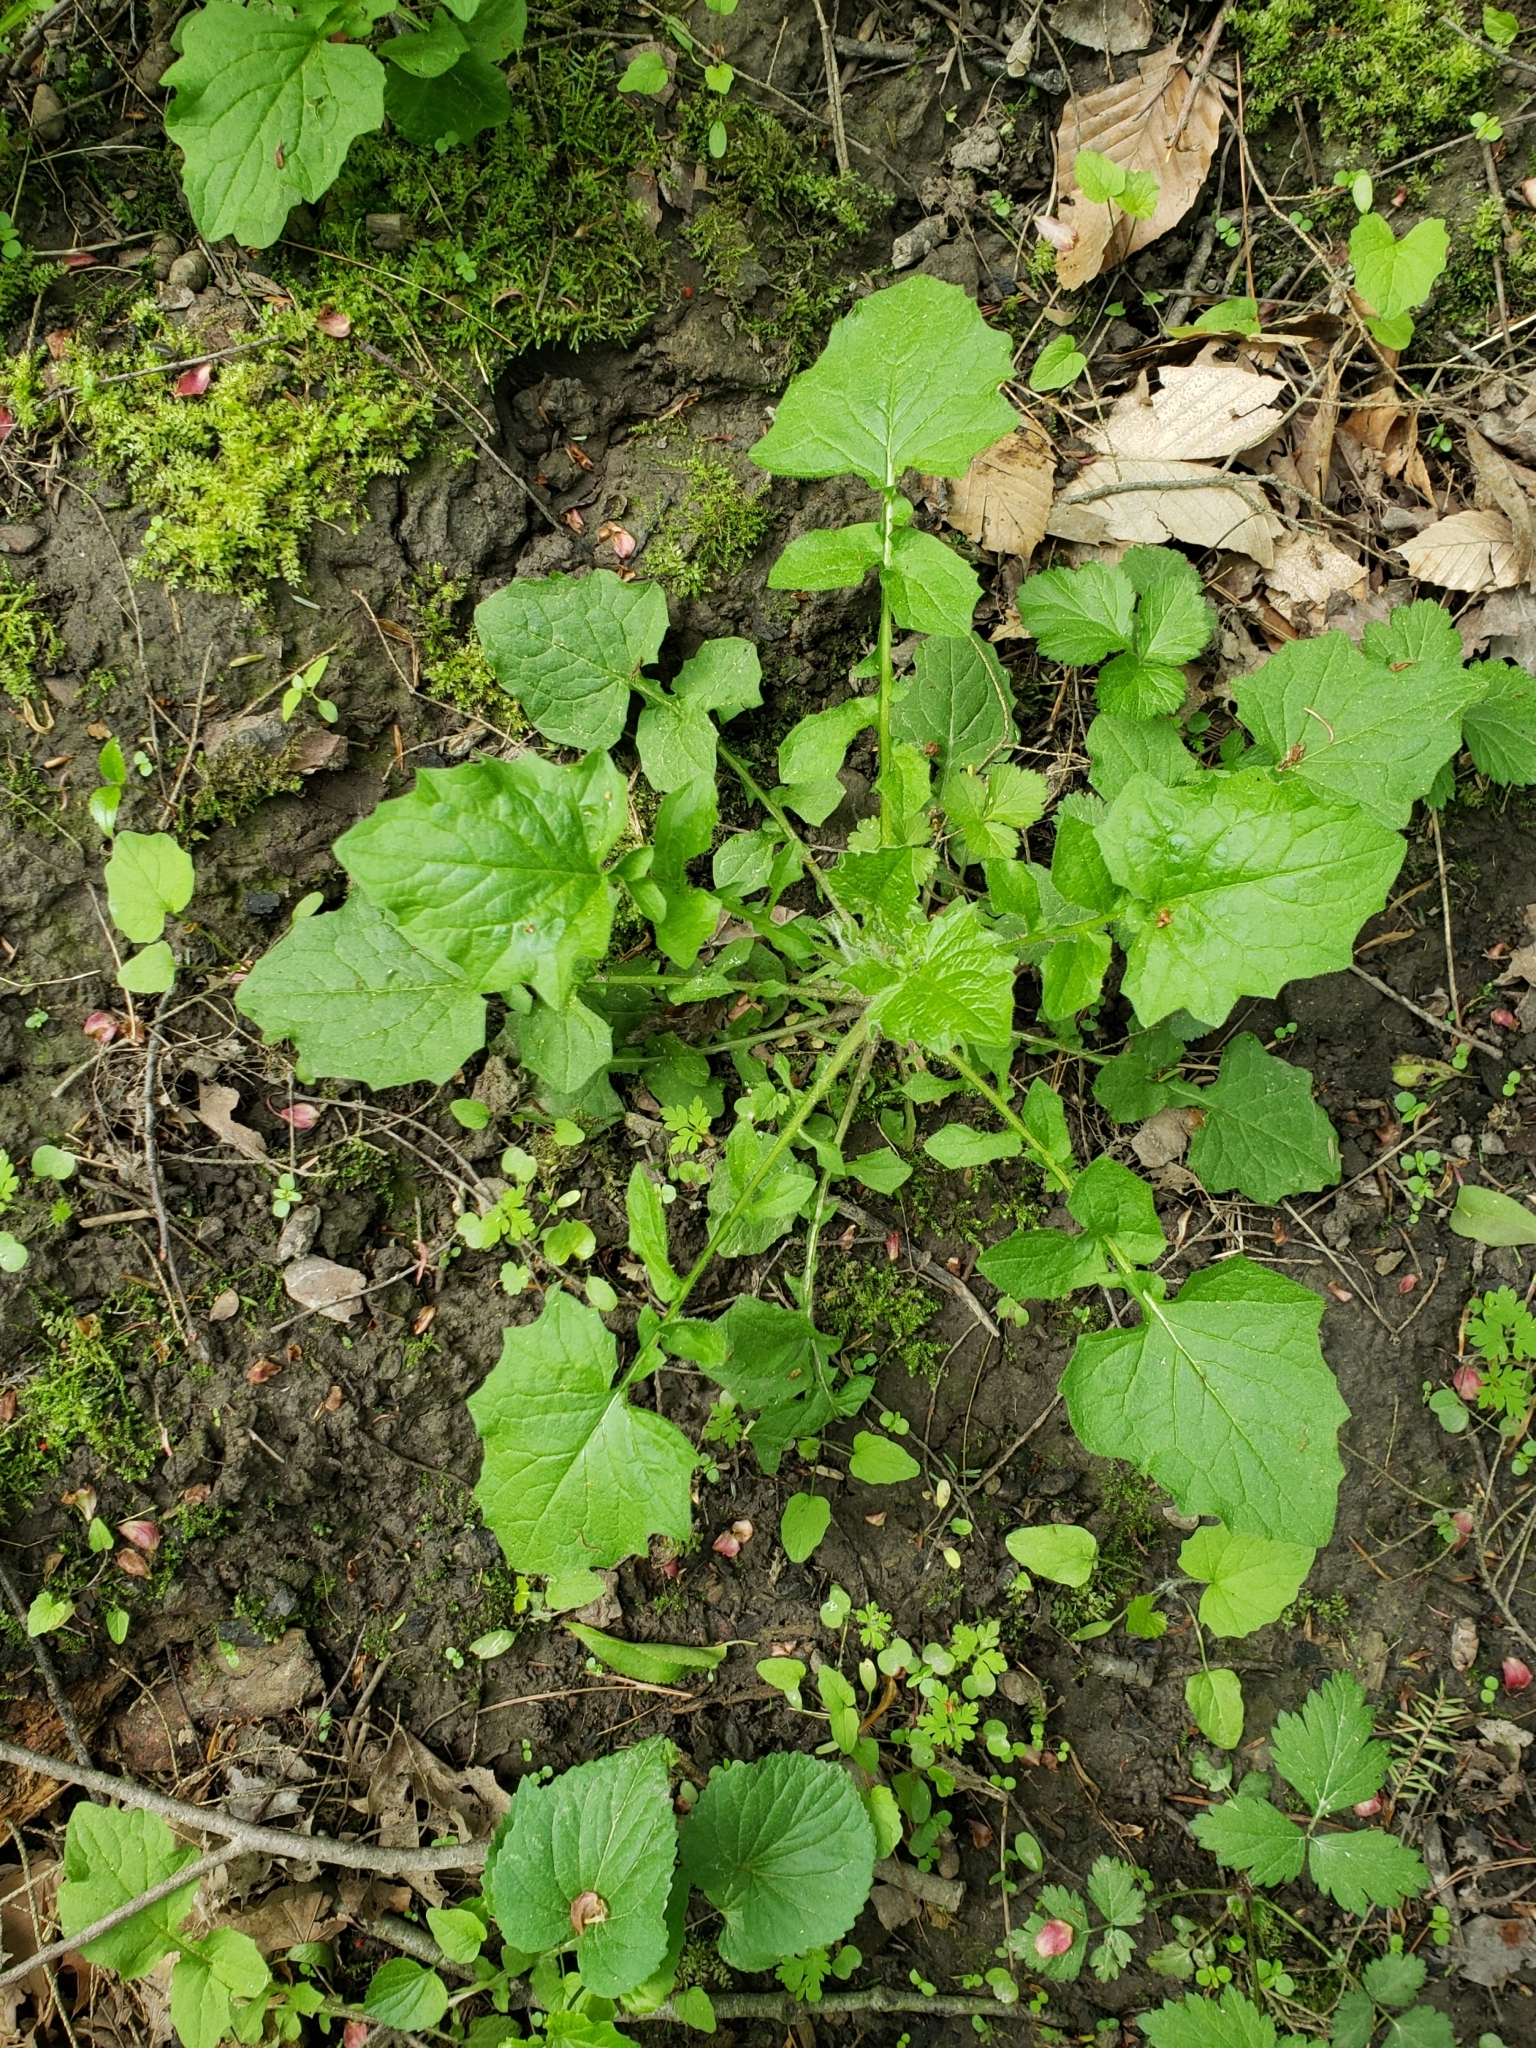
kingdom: Plantae
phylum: Tracheophyta
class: Magnoliopsida
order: Asterales
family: Asteraceae
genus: Lapsana
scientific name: Lapsana communis
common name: Nipplewort
